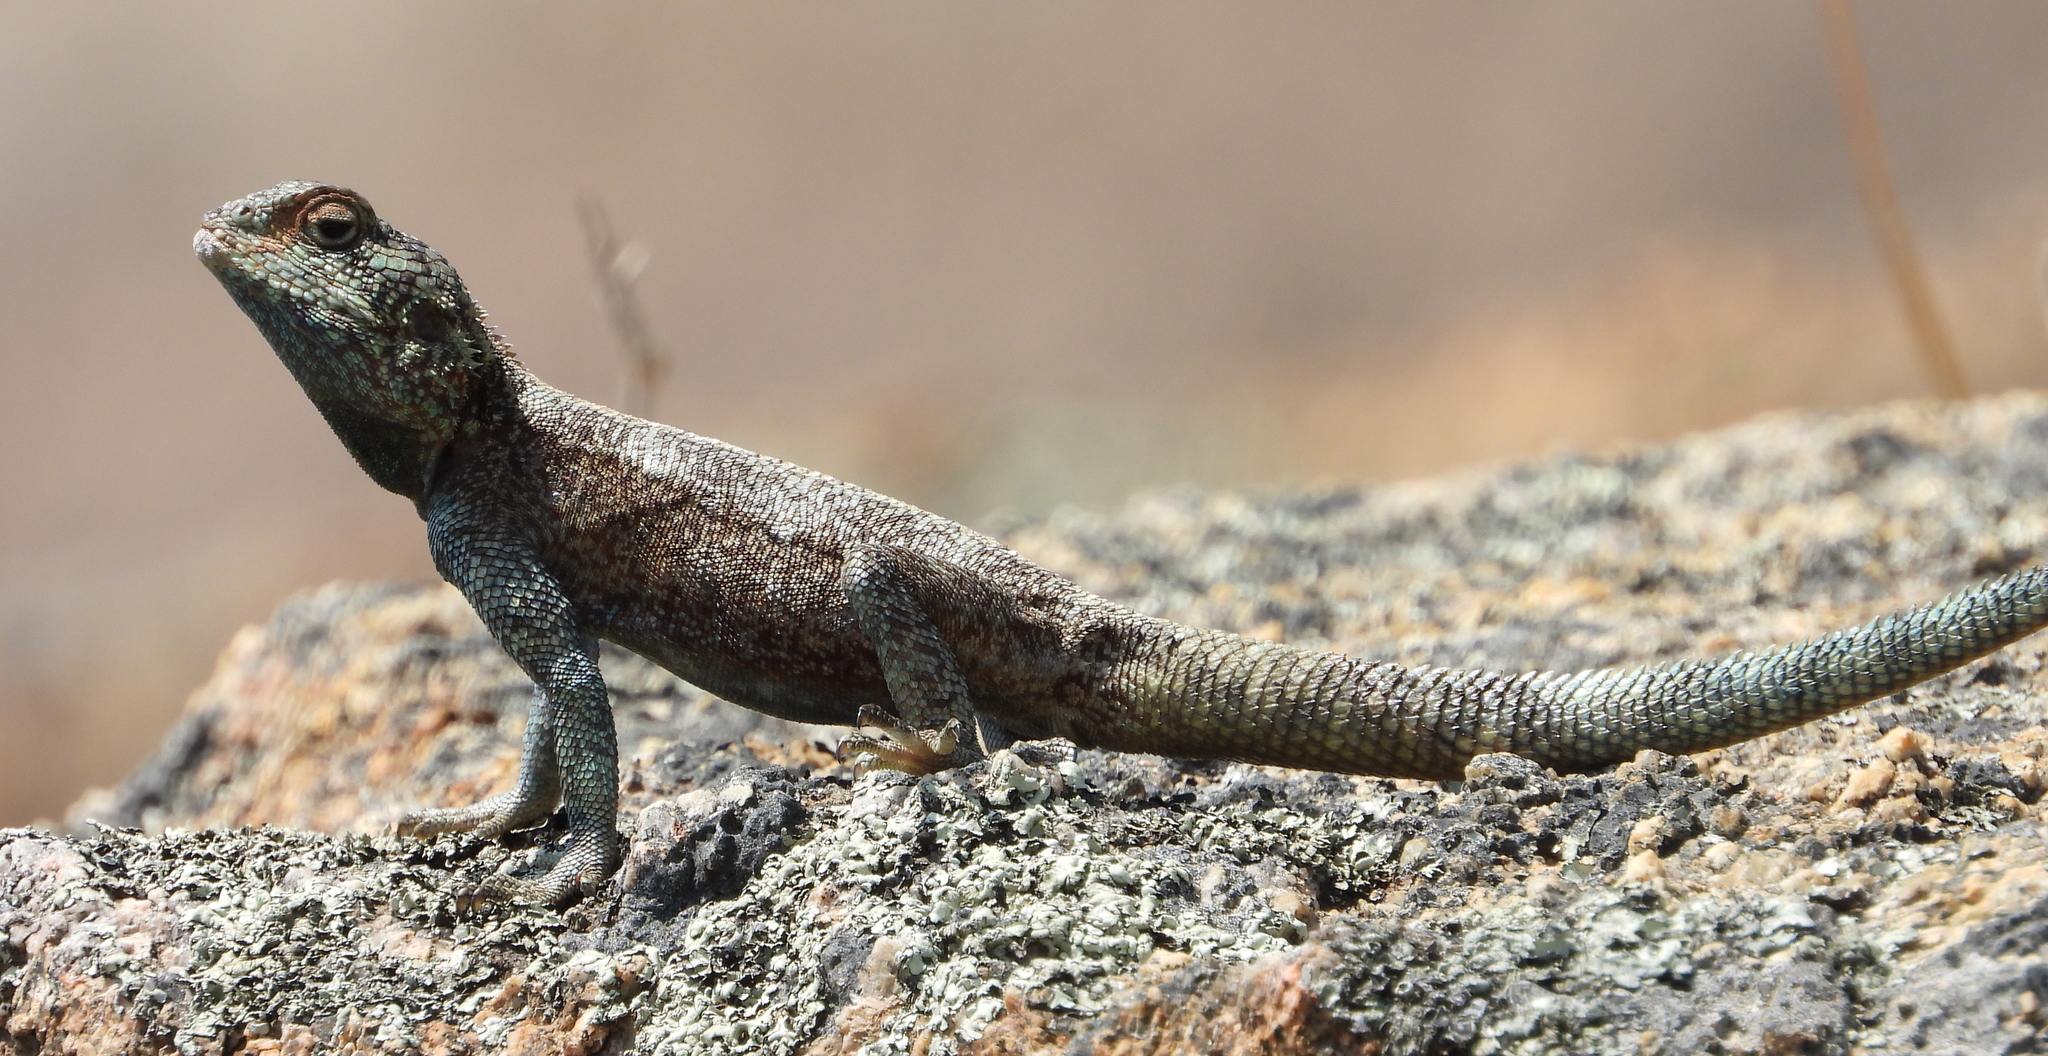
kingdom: Animalia
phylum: Chordata
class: Squamata
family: Agamidae
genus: Agama
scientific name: Agama atra
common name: Southern african rock agama
